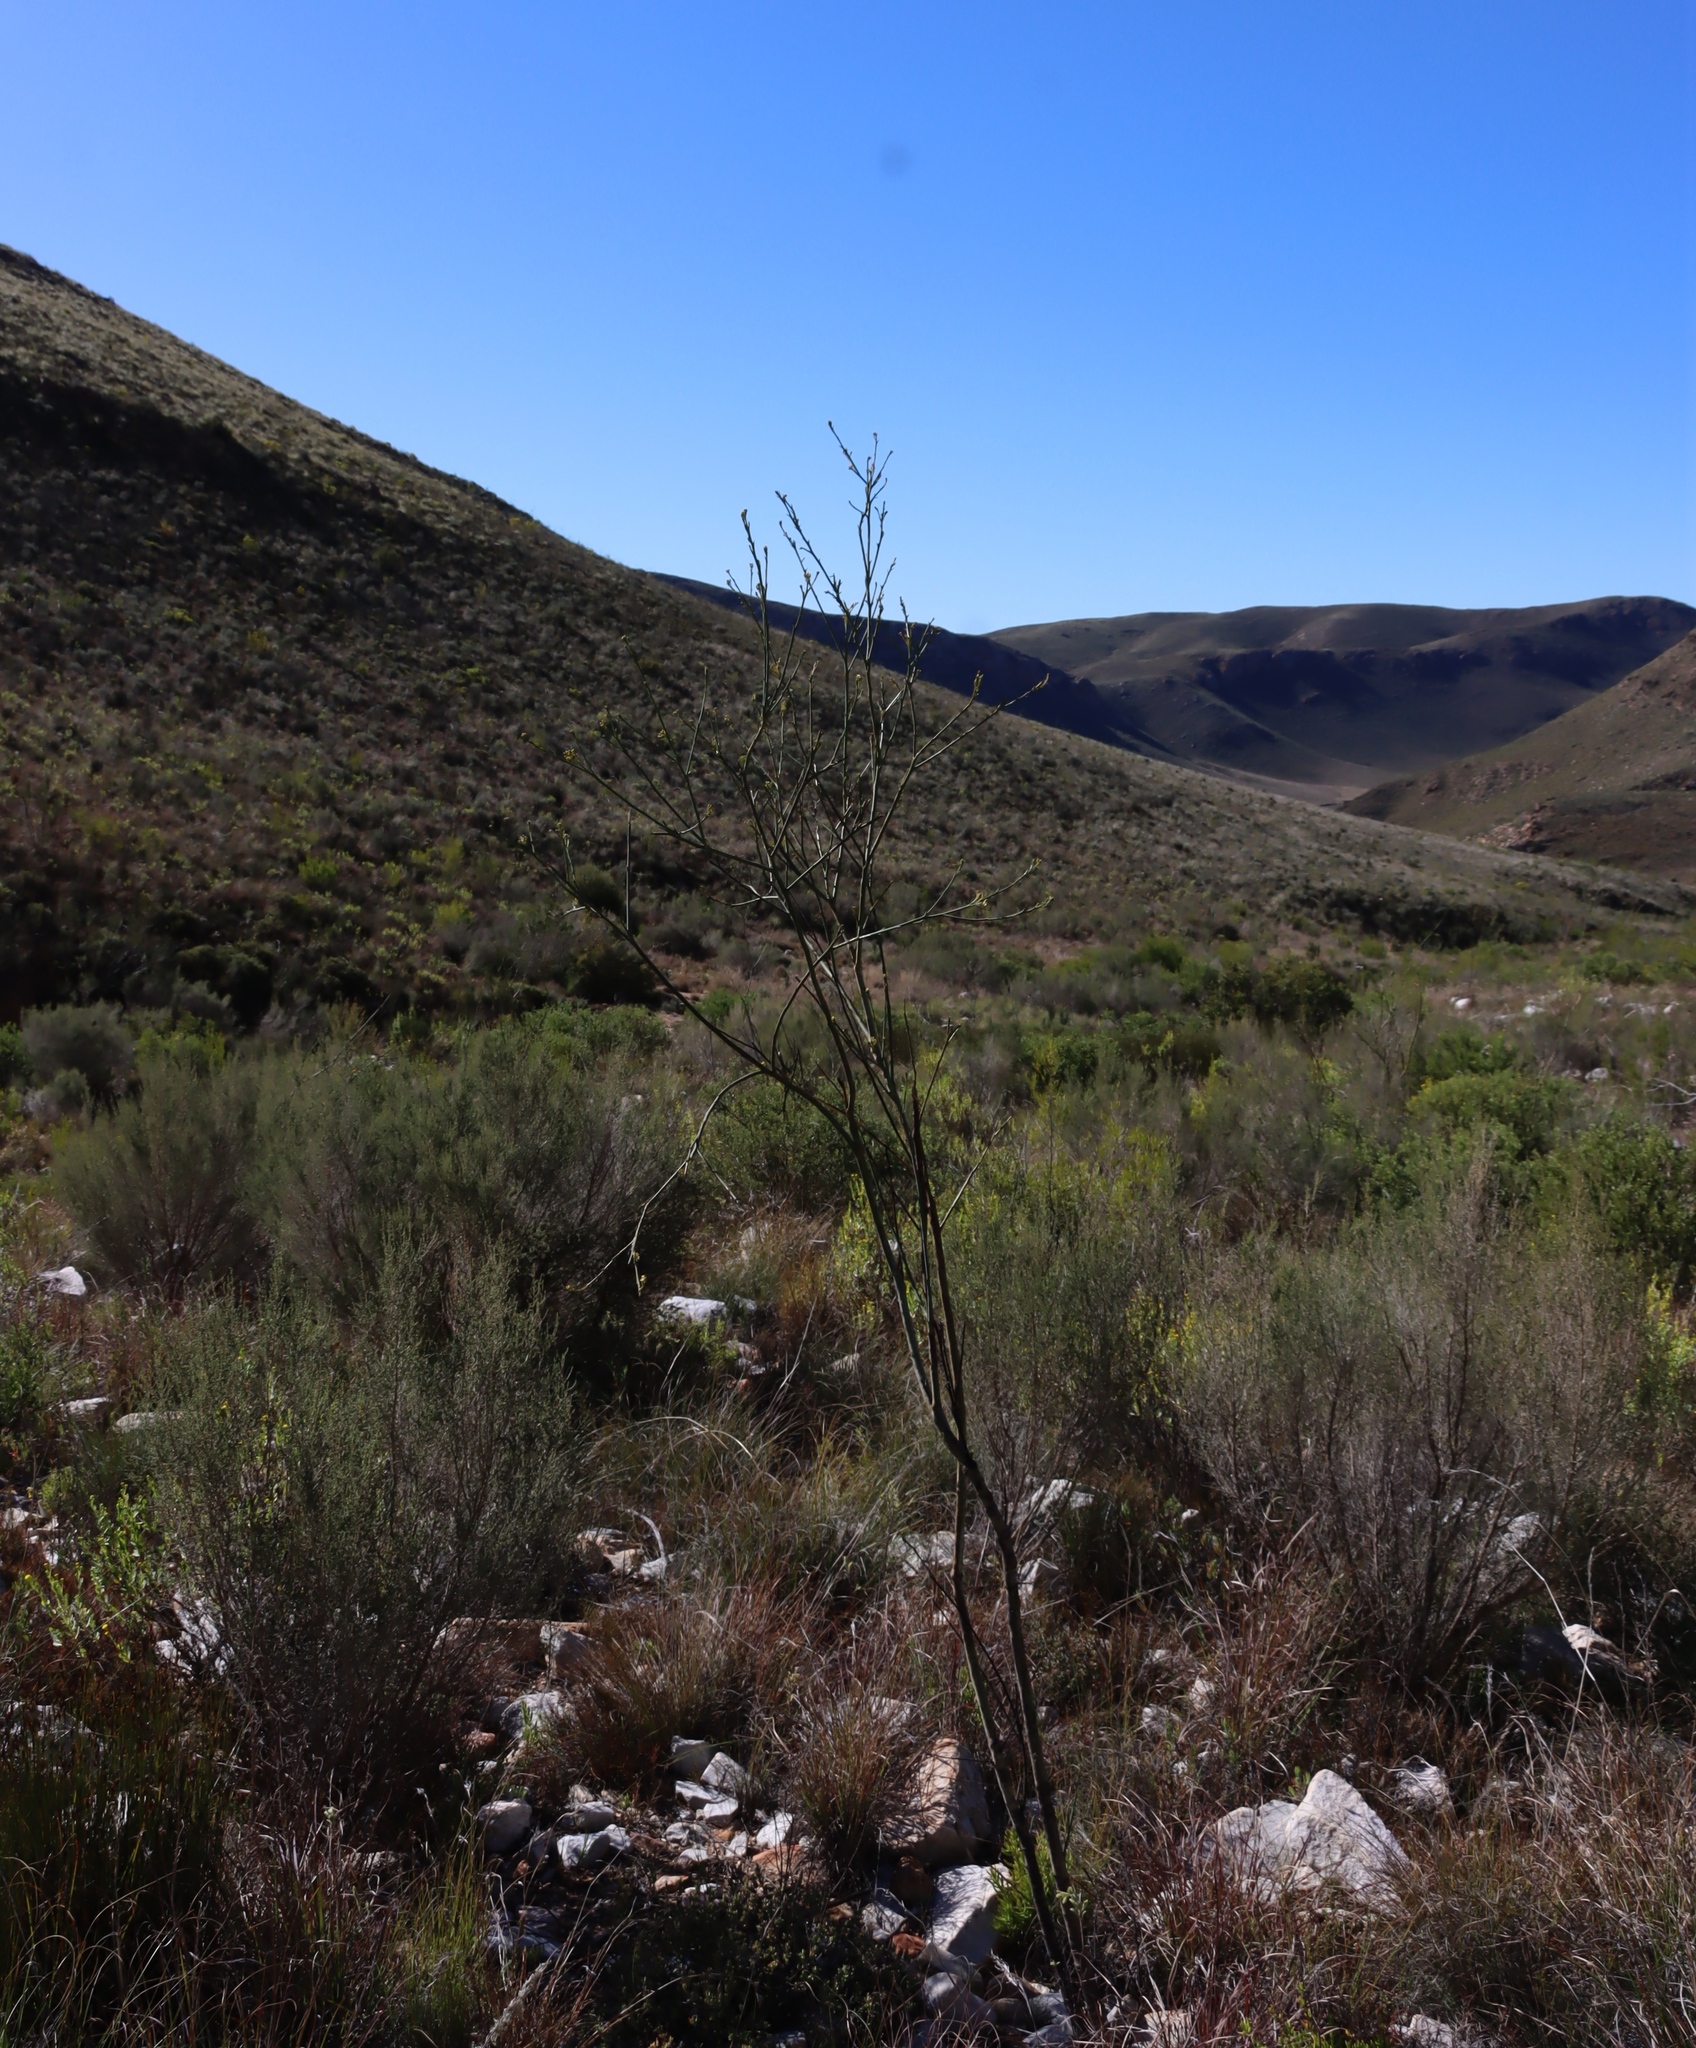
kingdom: Plantae
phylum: Tracheophyta
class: Magnoliopsida
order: Santalales
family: Thesiaceae
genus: Thesium
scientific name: Thesium strictum
